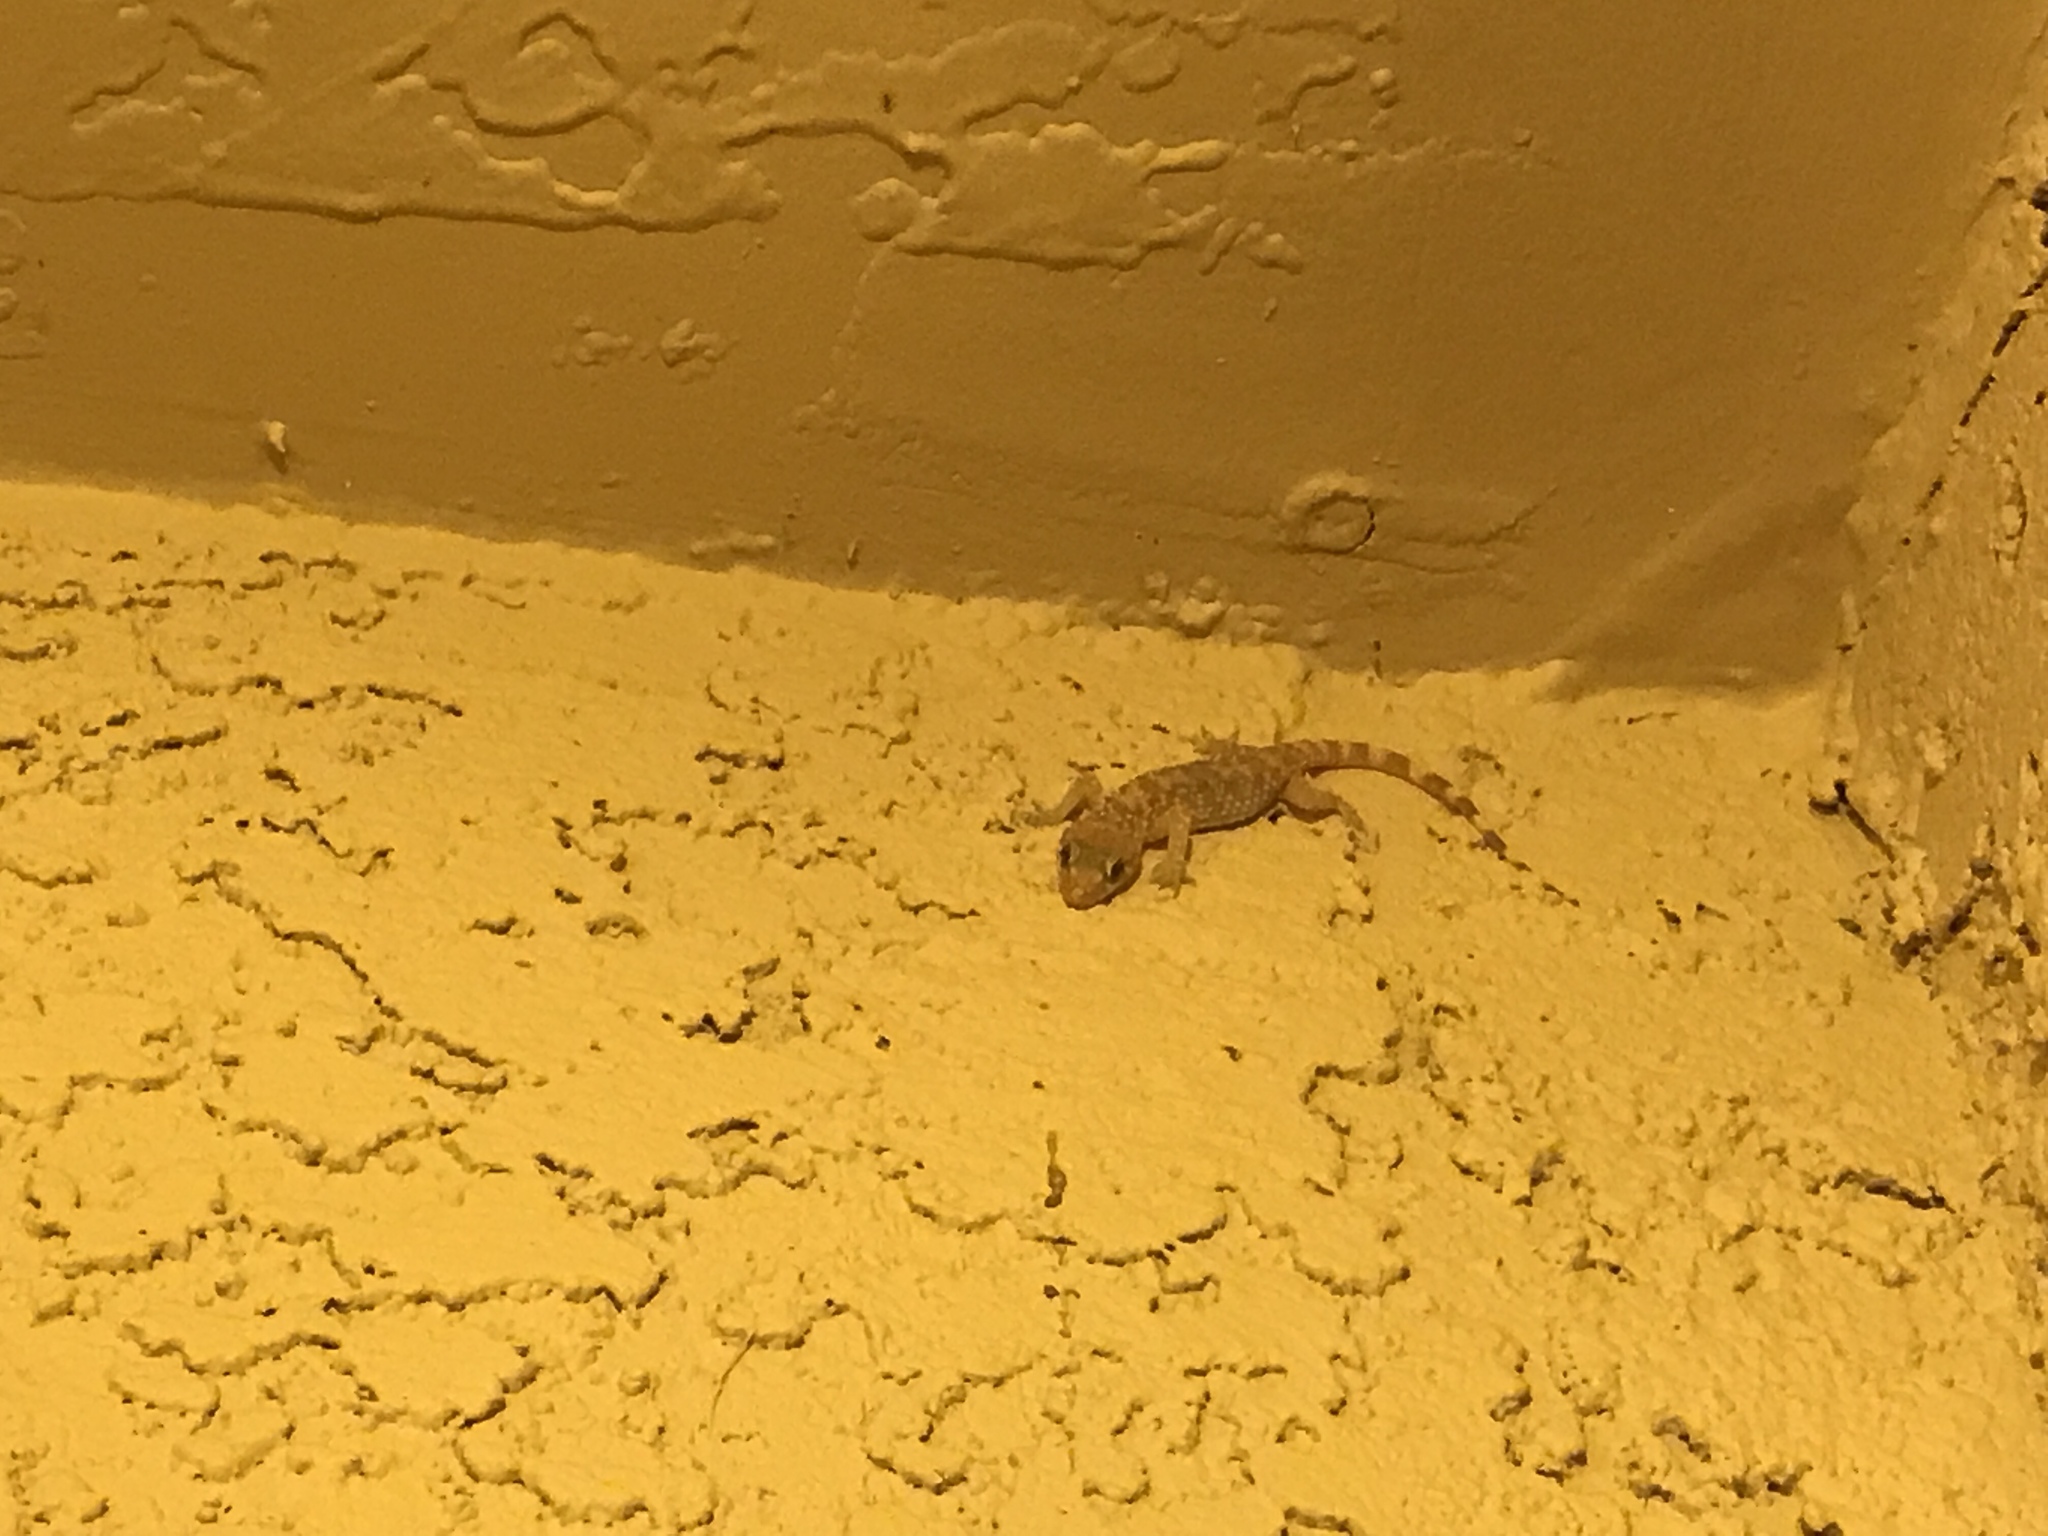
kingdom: Animalia
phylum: Chordata
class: Squamata
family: Gekkonidae
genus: Hemidactylus
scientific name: Hemidactylus turcicus
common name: Turkish gecko
